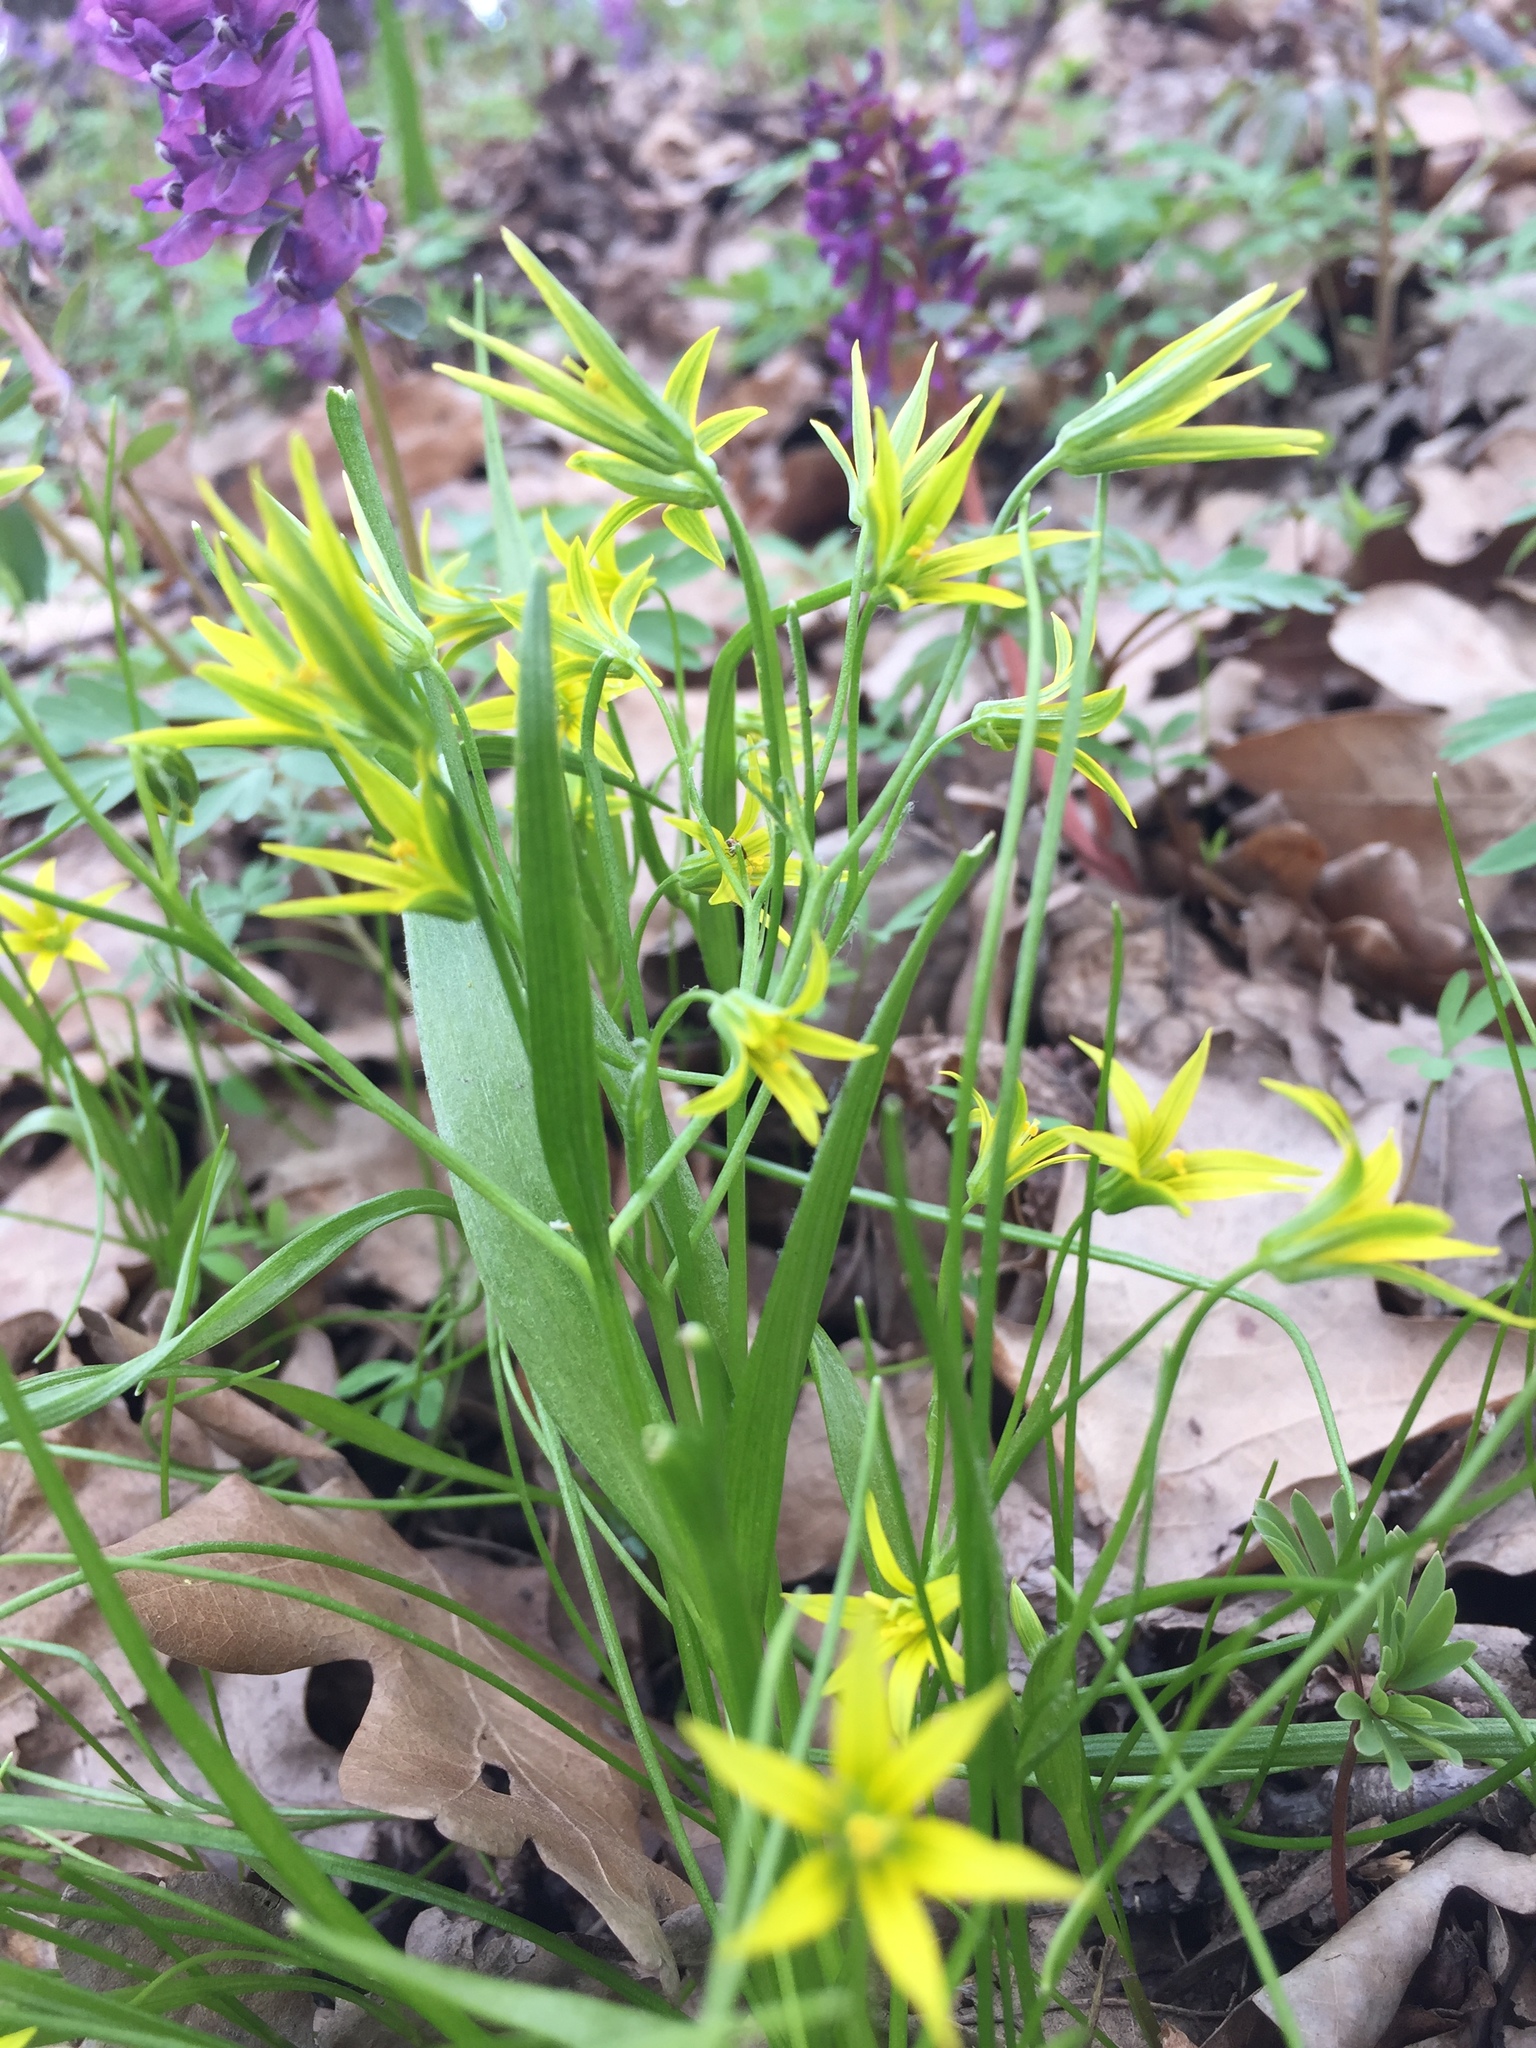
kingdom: Plantae
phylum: Tracheophyta
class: Liliopsida
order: Liliales
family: Liliaceae
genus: Gagea
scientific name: Gagea minima
